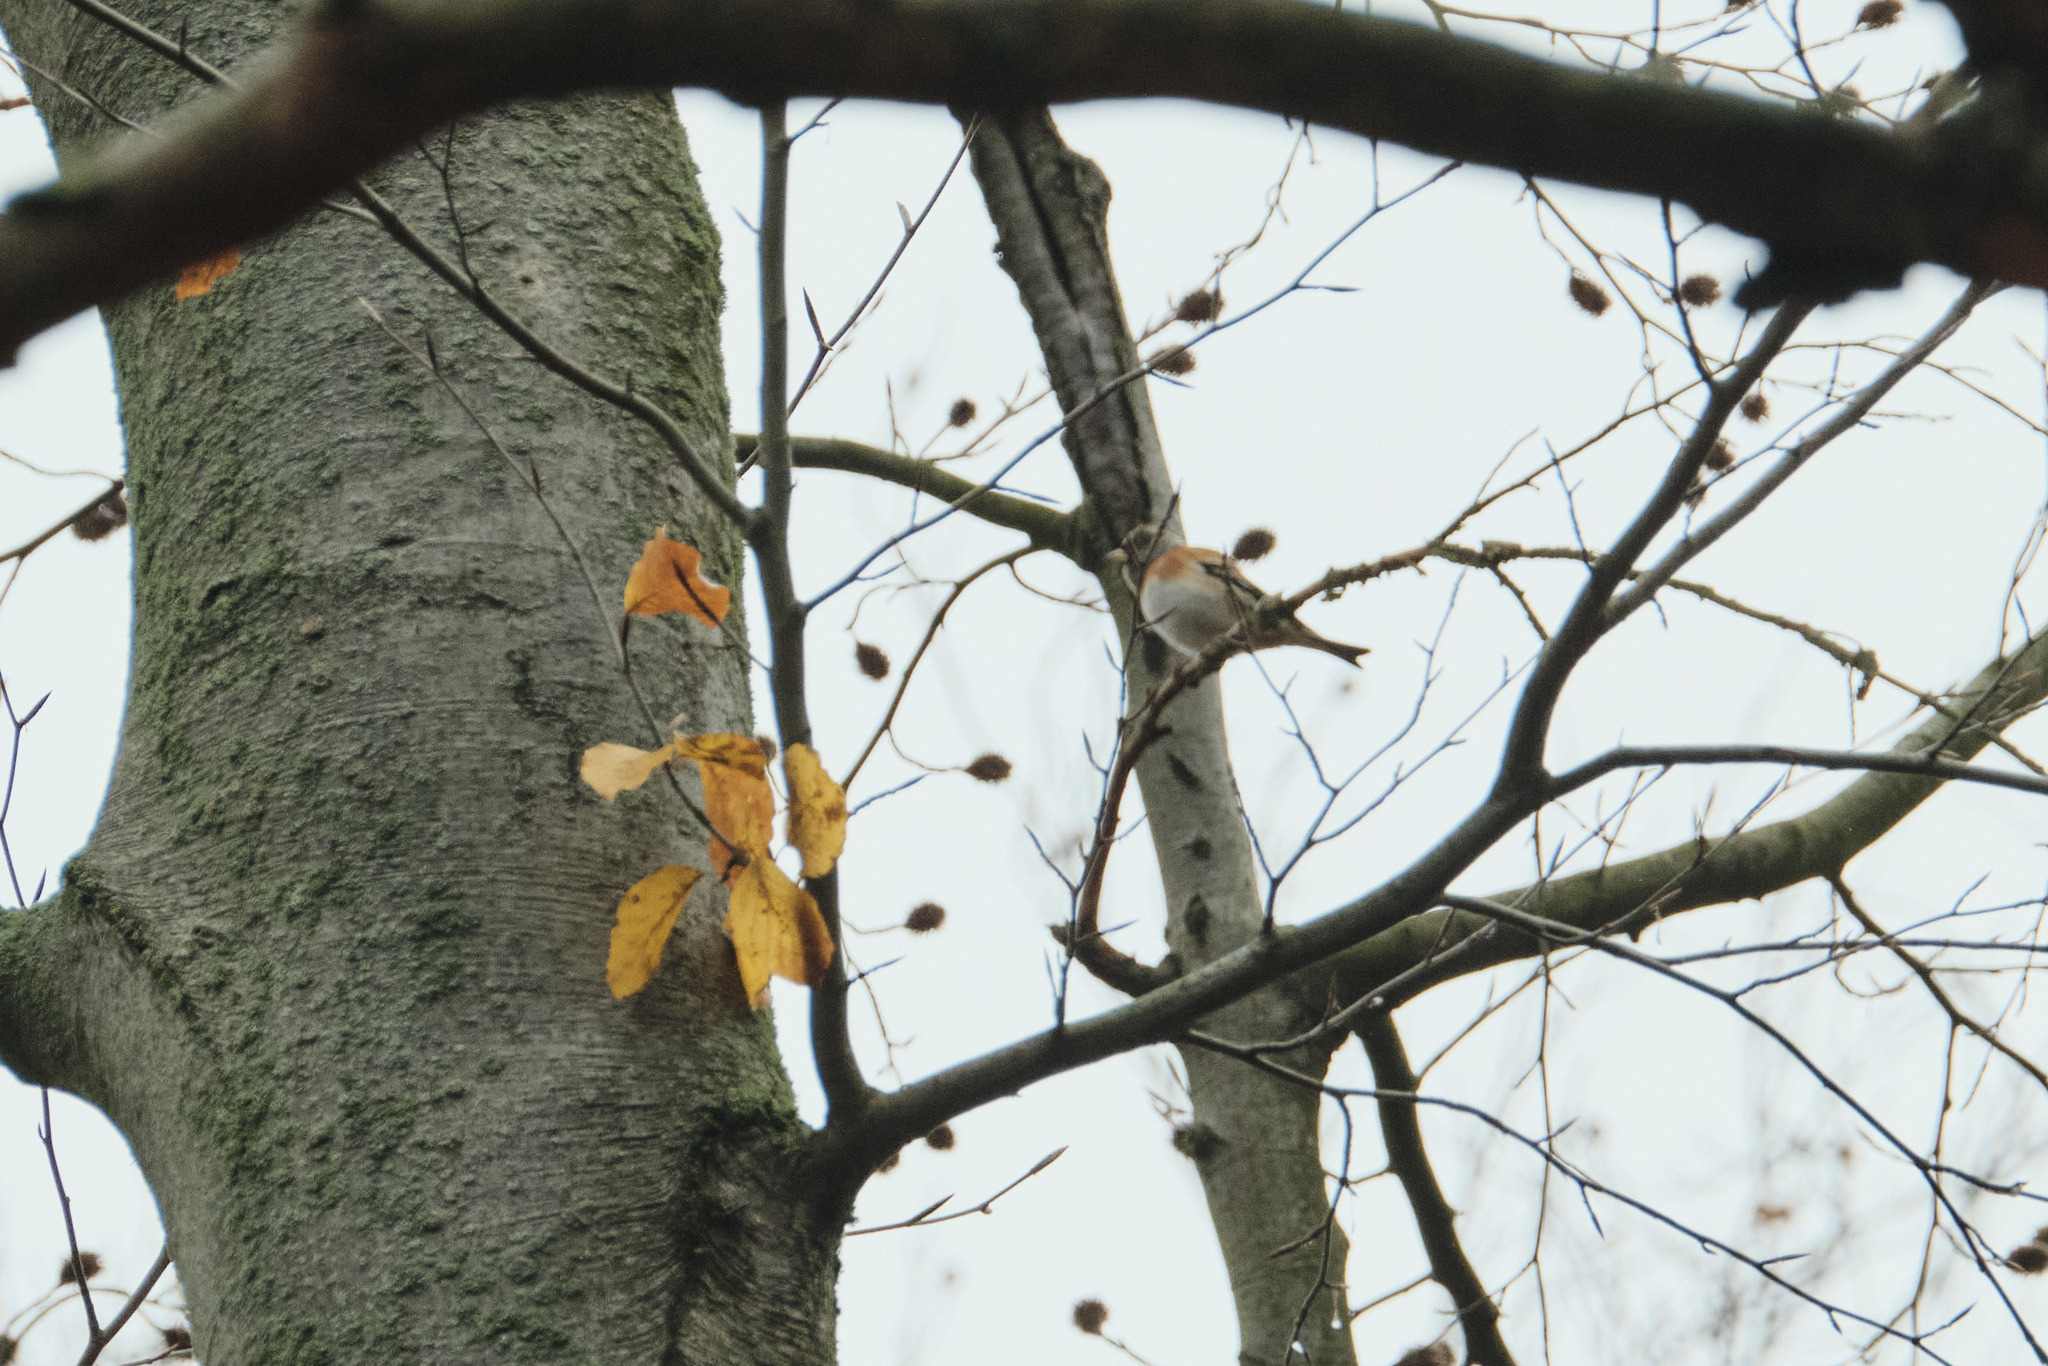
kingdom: Animalia
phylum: Chordata
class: Aves
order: Passeriformes
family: Fringillidae
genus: Fringilla
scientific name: Fringilla montifringilla
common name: Brambling
